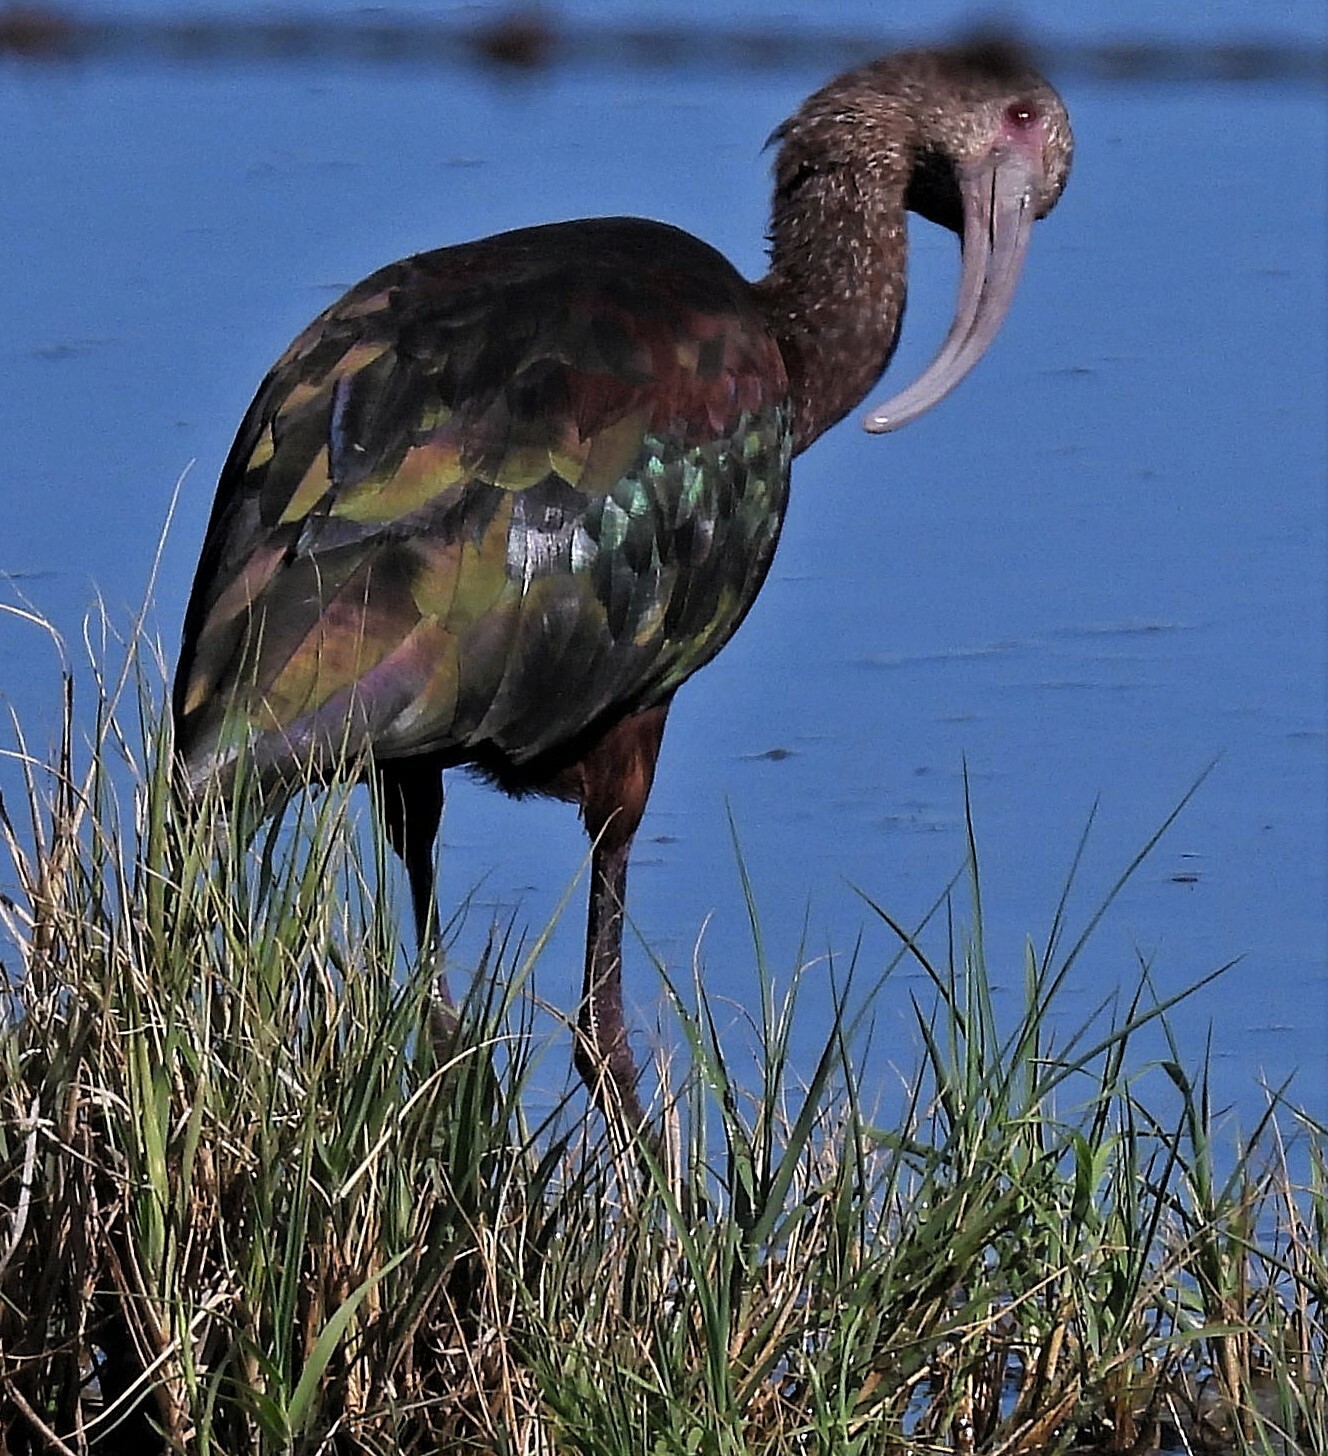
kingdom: Animalia
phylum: Chordata
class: Aves
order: Pelecaniformes
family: Threskiornithidae
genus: Plegadis
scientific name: Plegadis chihi
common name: White-faced ibis
